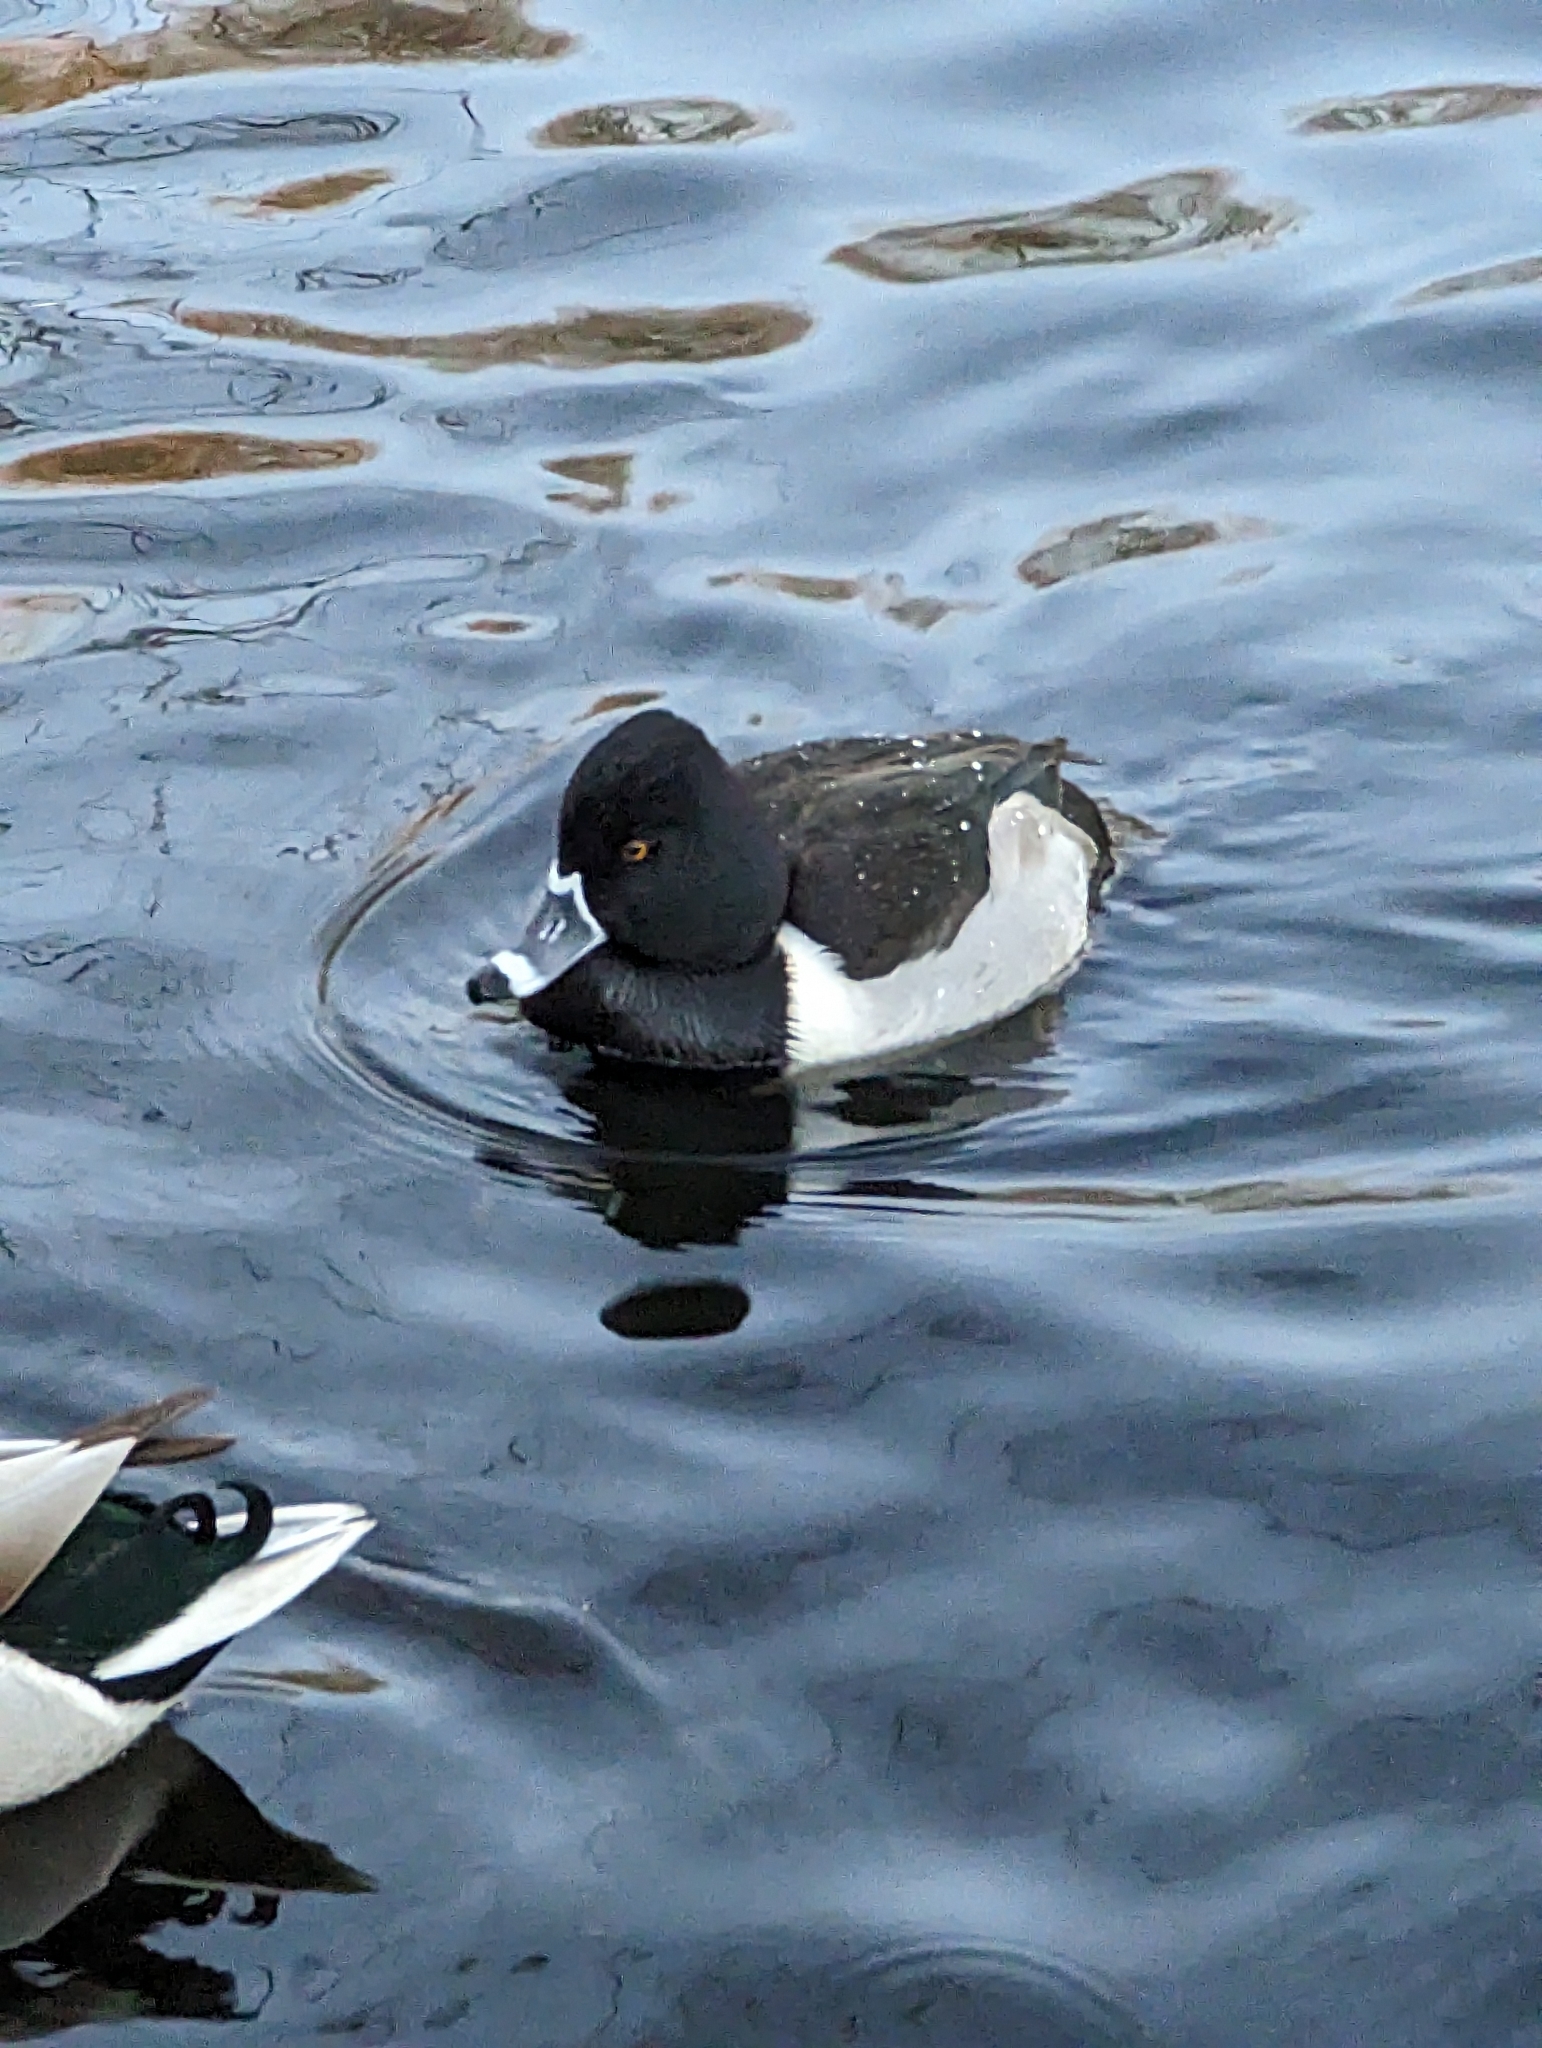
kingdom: Animalia
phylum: Chordata
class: Aves
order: Anseriformes
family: Anatidae
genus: Aythya
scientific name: Aythya collaris
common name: Ring-necked duck
